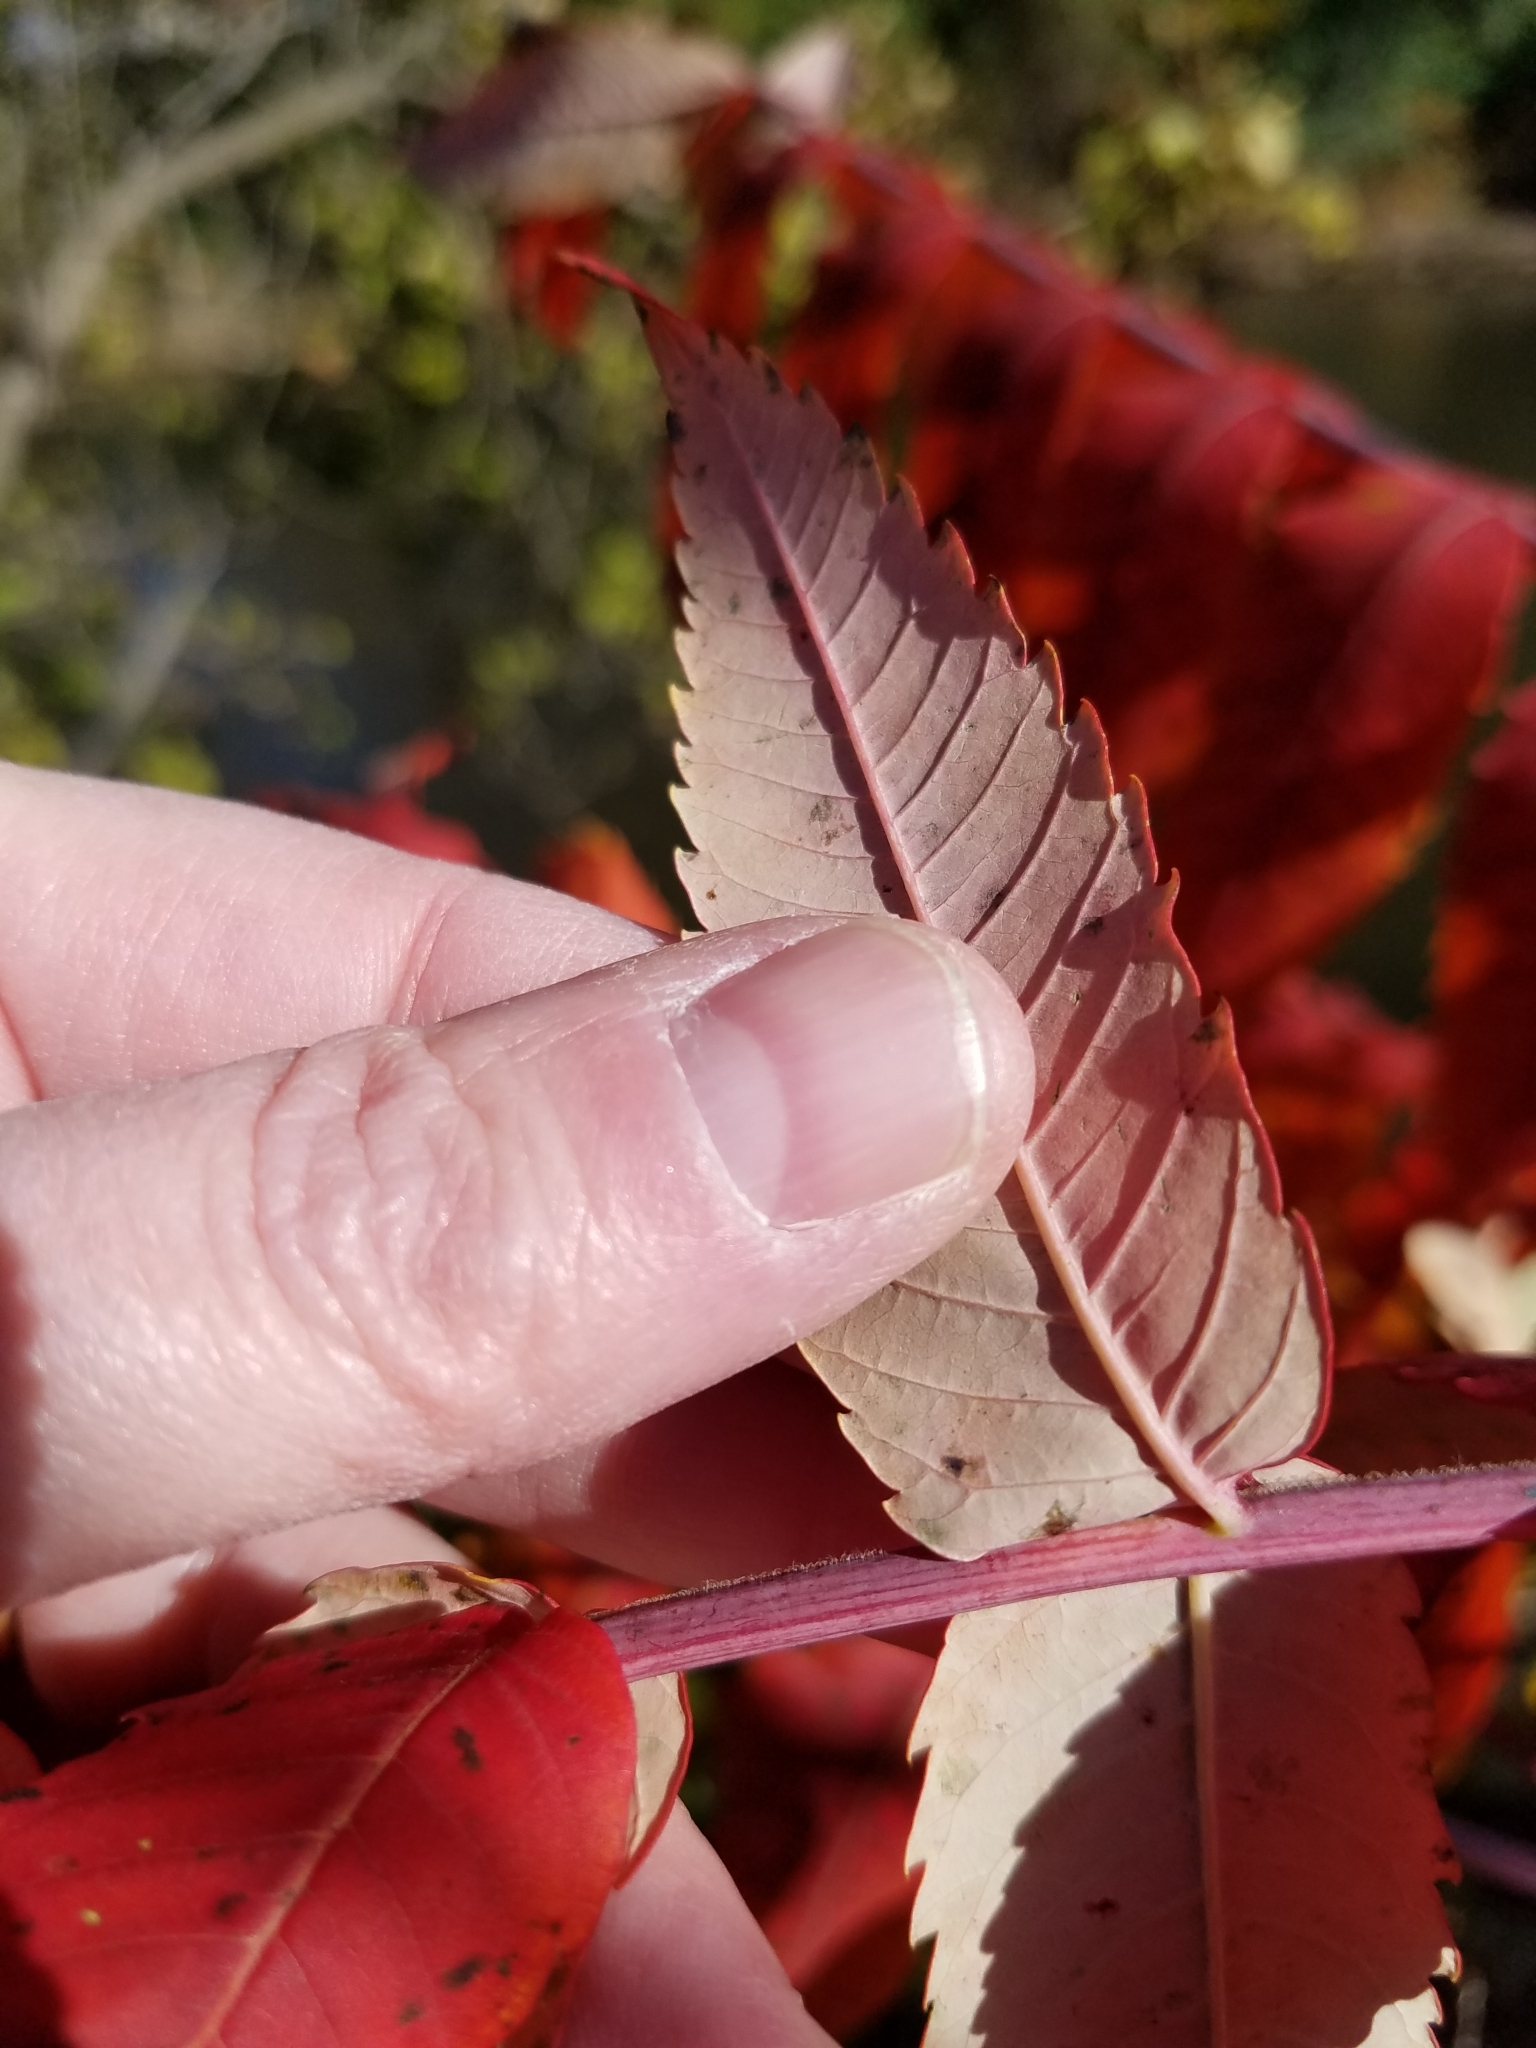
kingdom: Plantae
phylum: Tracheophyta
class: Magnoliopsida
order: Sapindales
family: Anacardiaceae
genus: Rhus
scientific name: Rhus glabra
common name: Scarlet sumac
